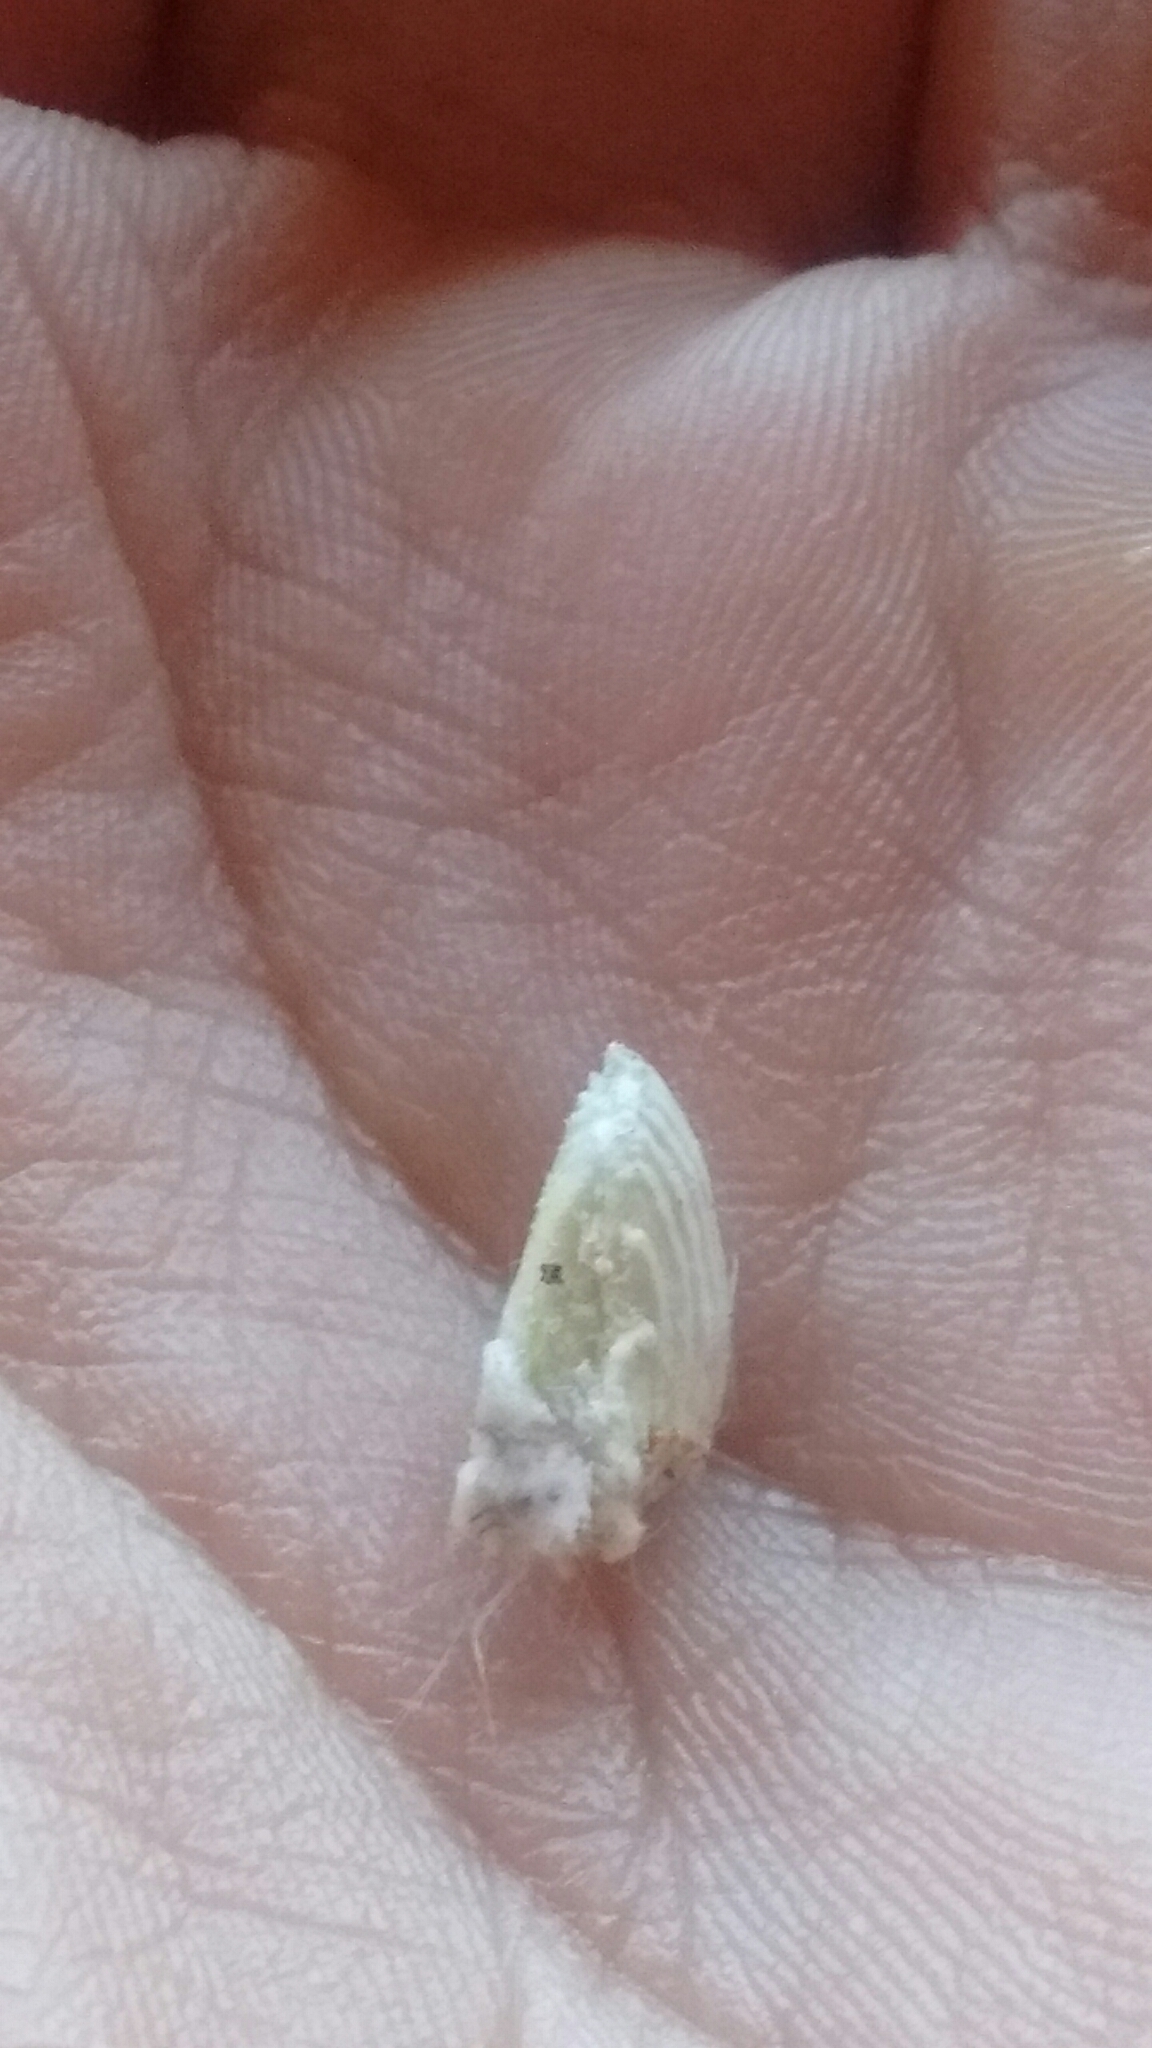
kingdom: Animalia
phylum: Arthropoda
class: Insecta
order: Hemiptera
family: Margarodidae
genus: Icerya
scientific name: Icerya purchasi
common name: Cottony cushion scale
